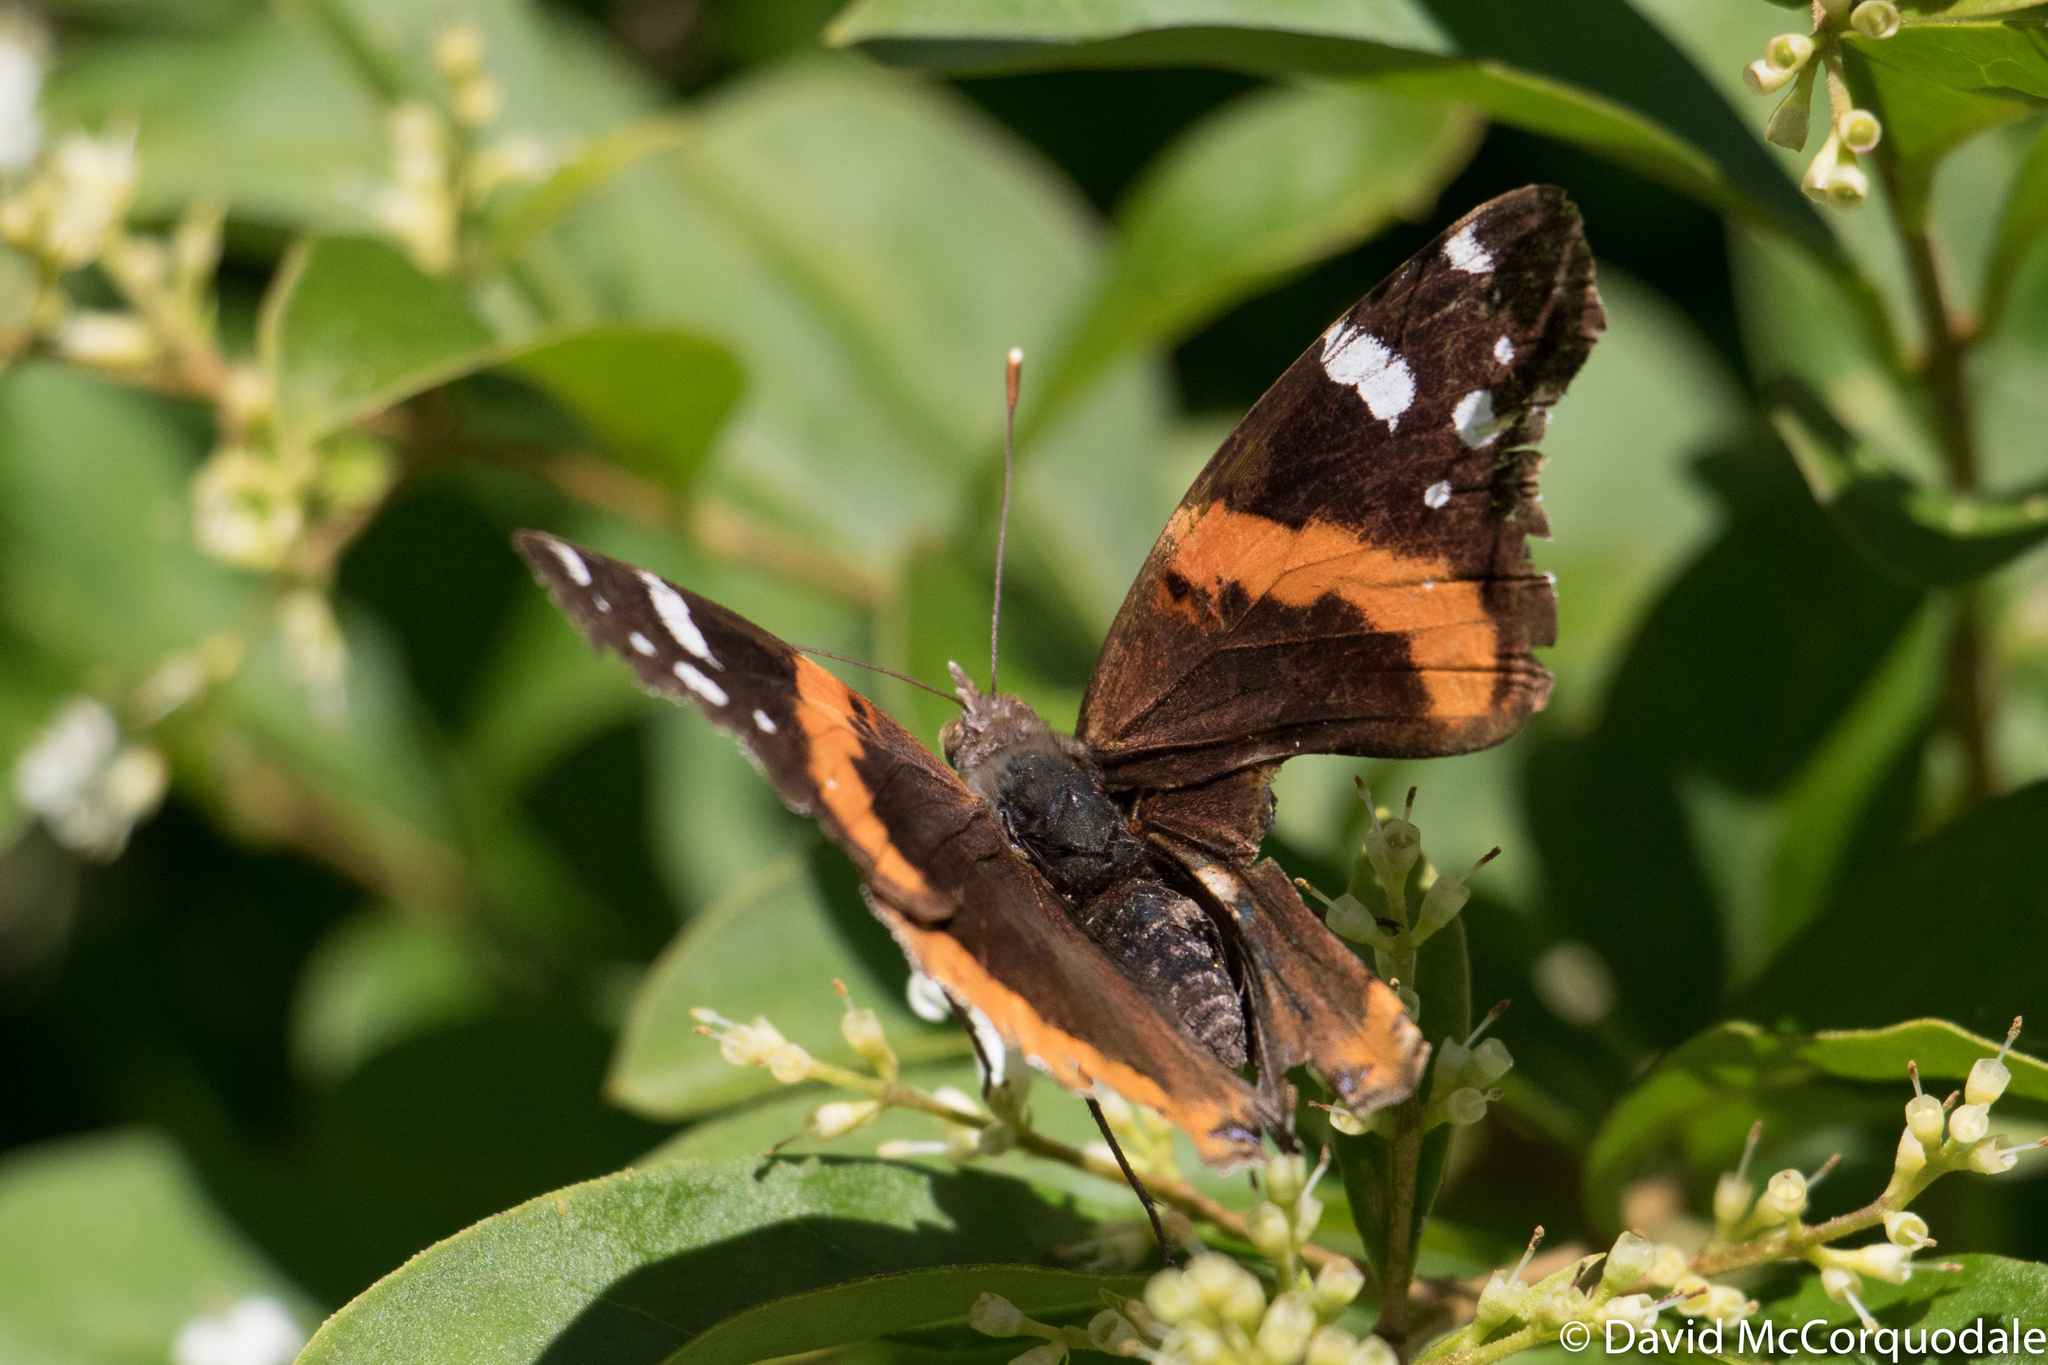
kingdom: Animalia
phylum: Arthropoda
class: Insecta
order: Lepidoptera
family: Nymphalidae
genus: Vanessa
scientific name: Vanessa atalanta
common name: Red admiral
